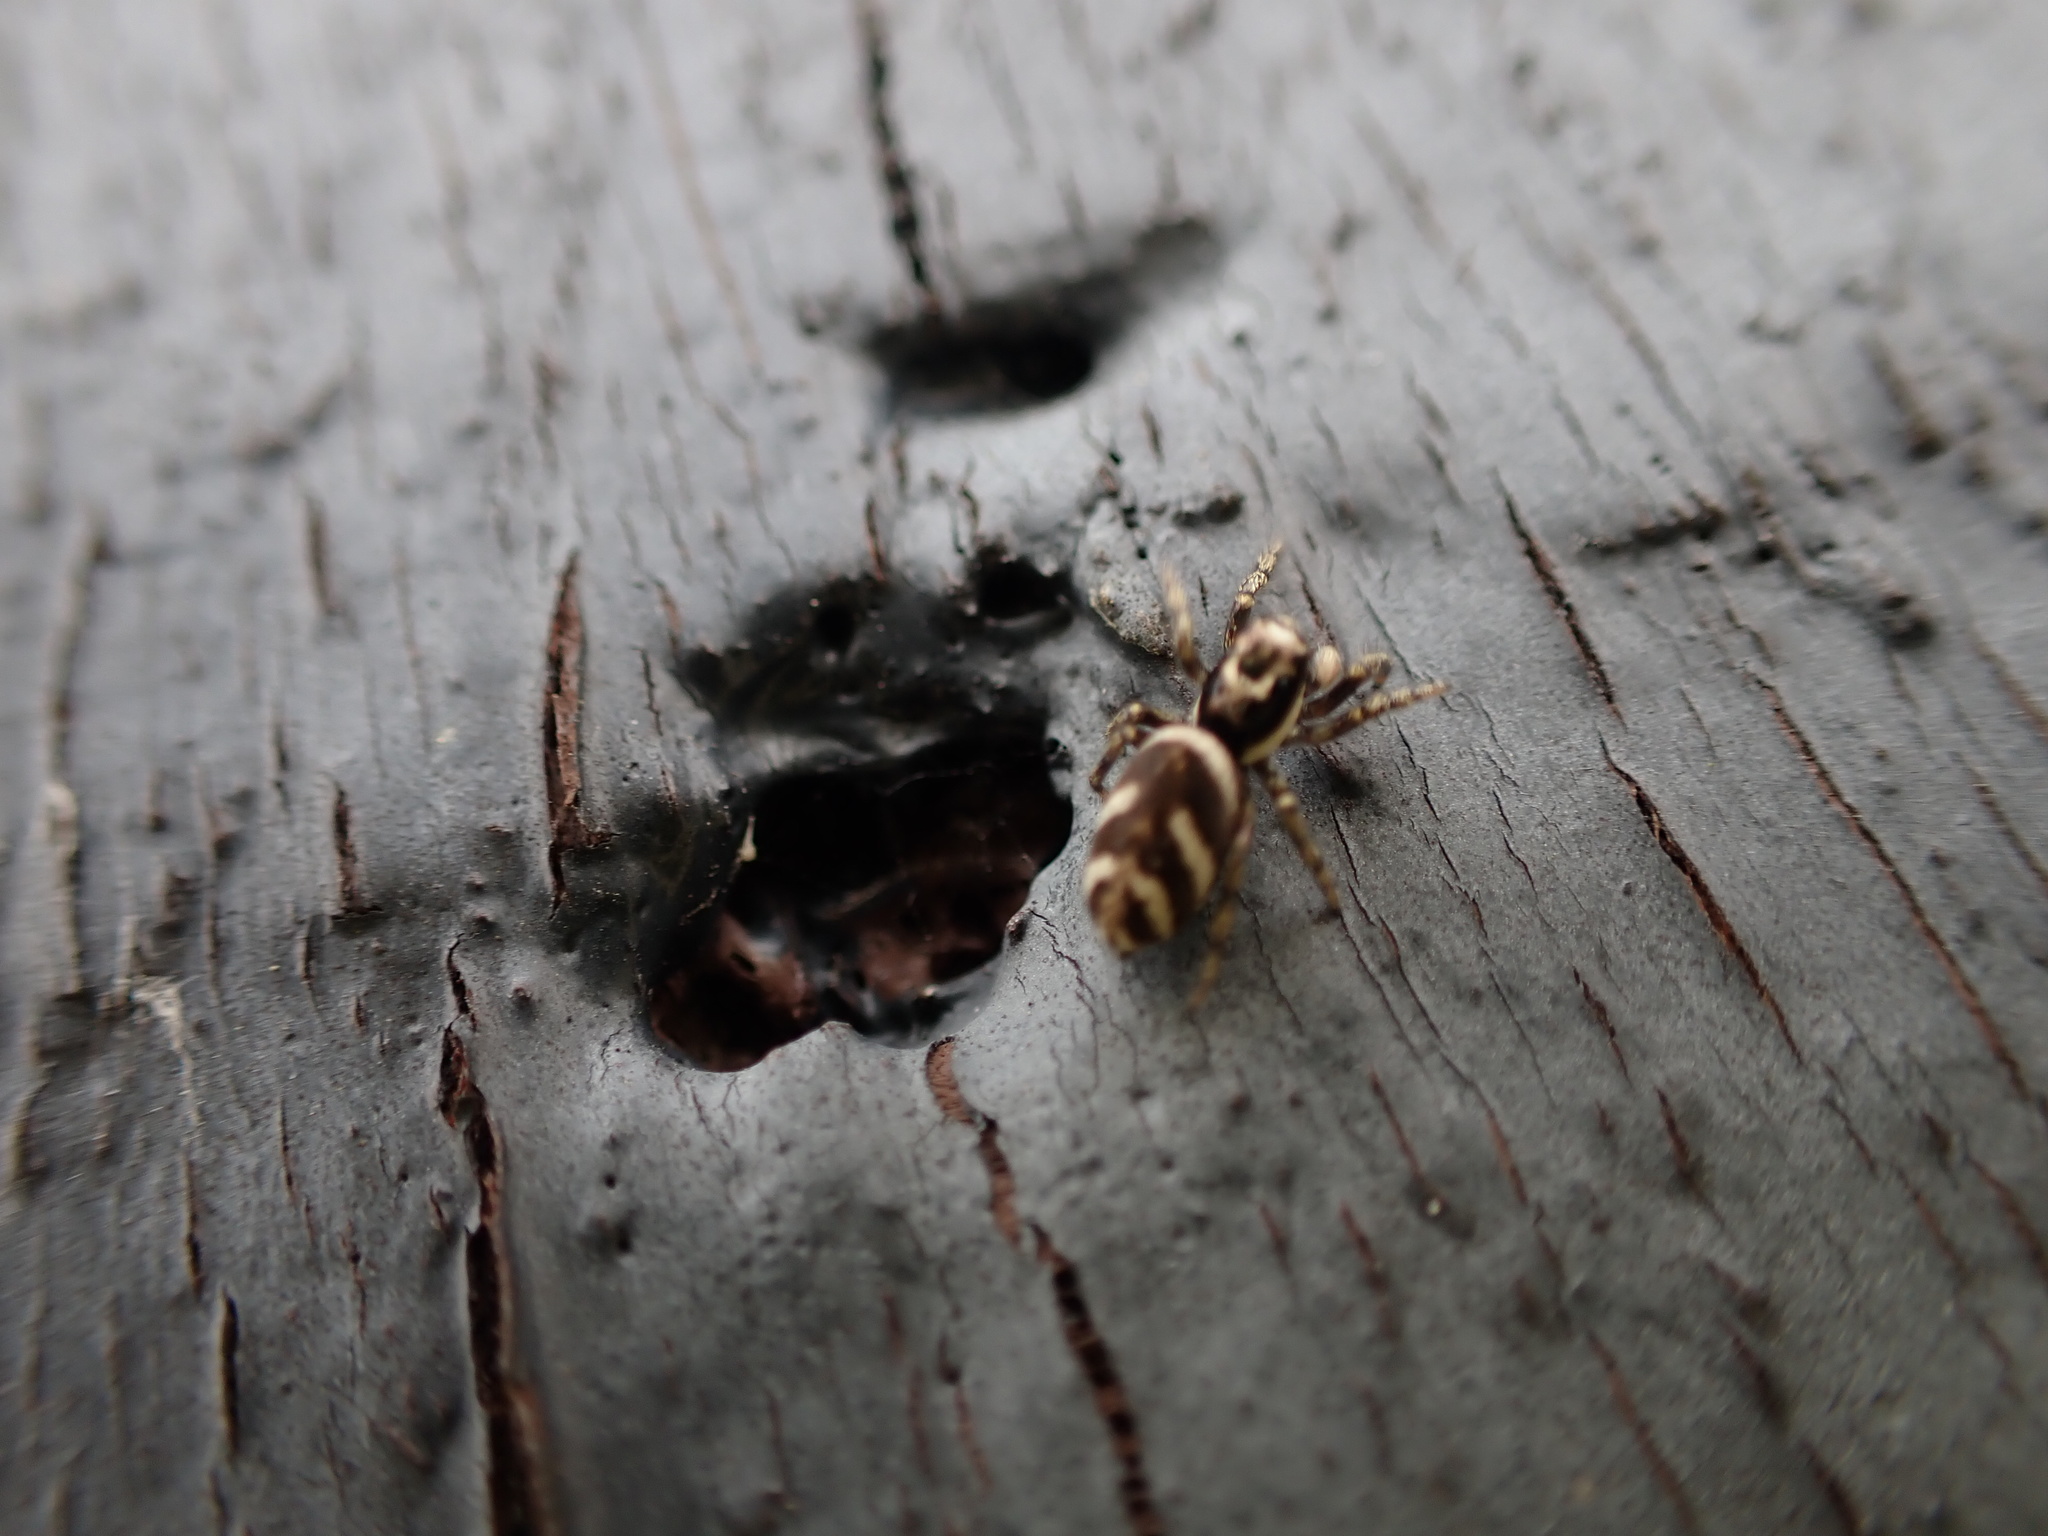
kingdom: Animalia
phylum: Arthropoda
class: Arachnida
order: Araneae
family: Salticidae
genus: Salticus
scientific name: Salticus scenicus
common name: Zebra jumper
